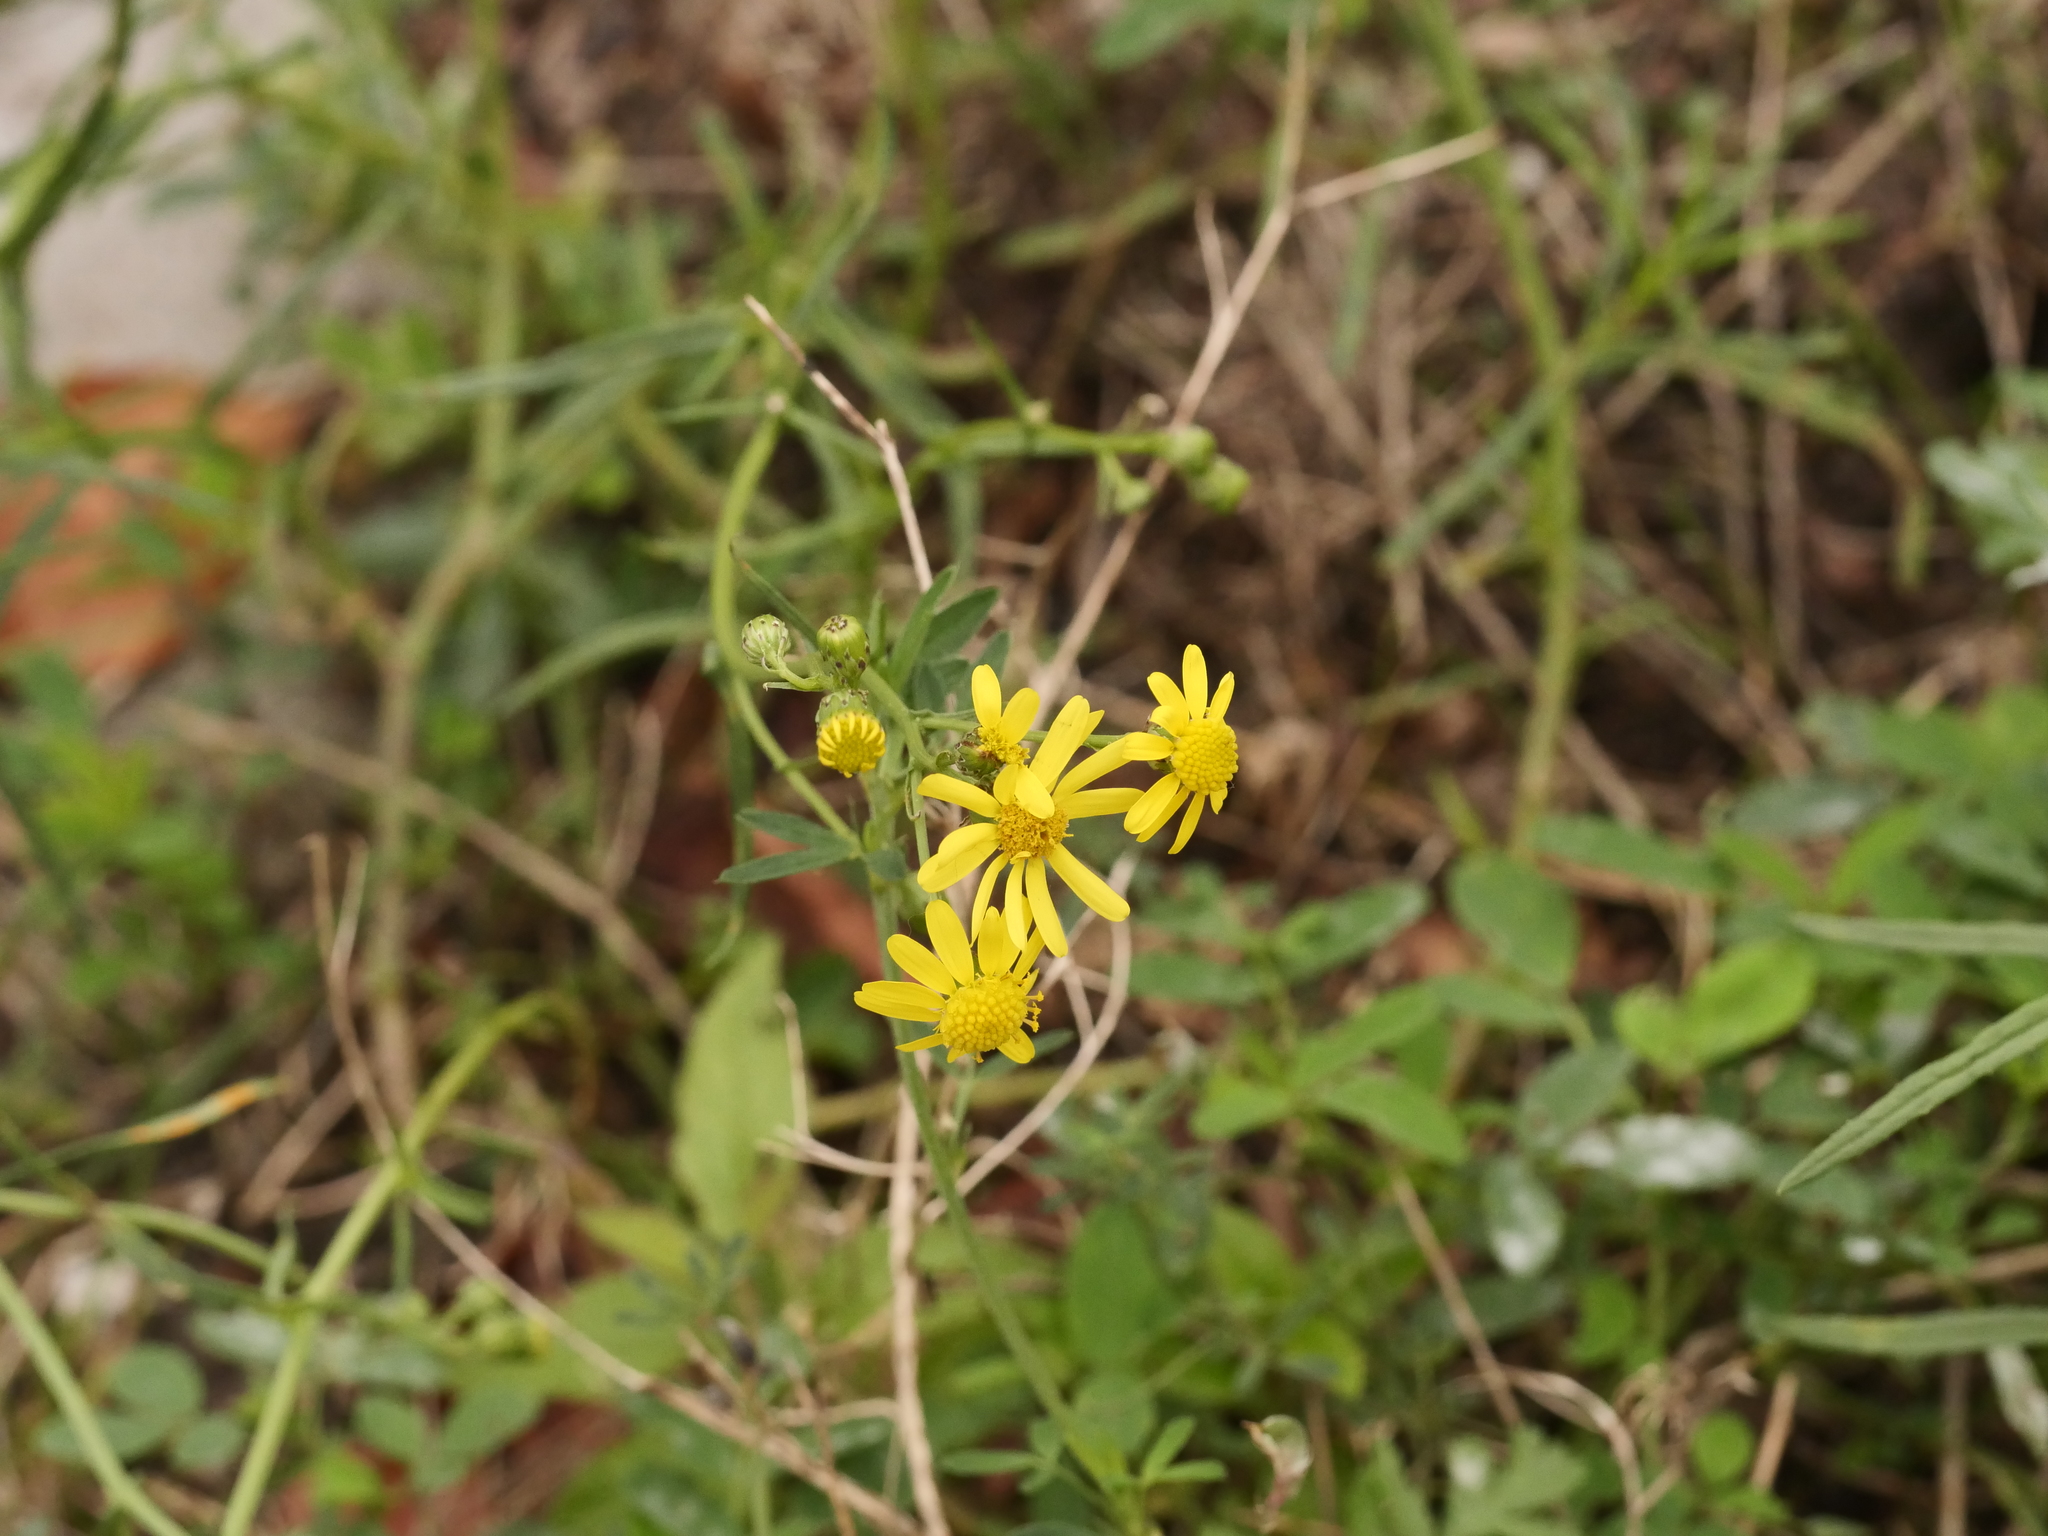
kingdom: Plantae
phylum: Tracheophyta
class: Magnoliopsida
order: Asterales
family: Asteraceae
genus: Senecio
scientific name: Senecio inaequidens
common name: Narrow-leaved ragwort
